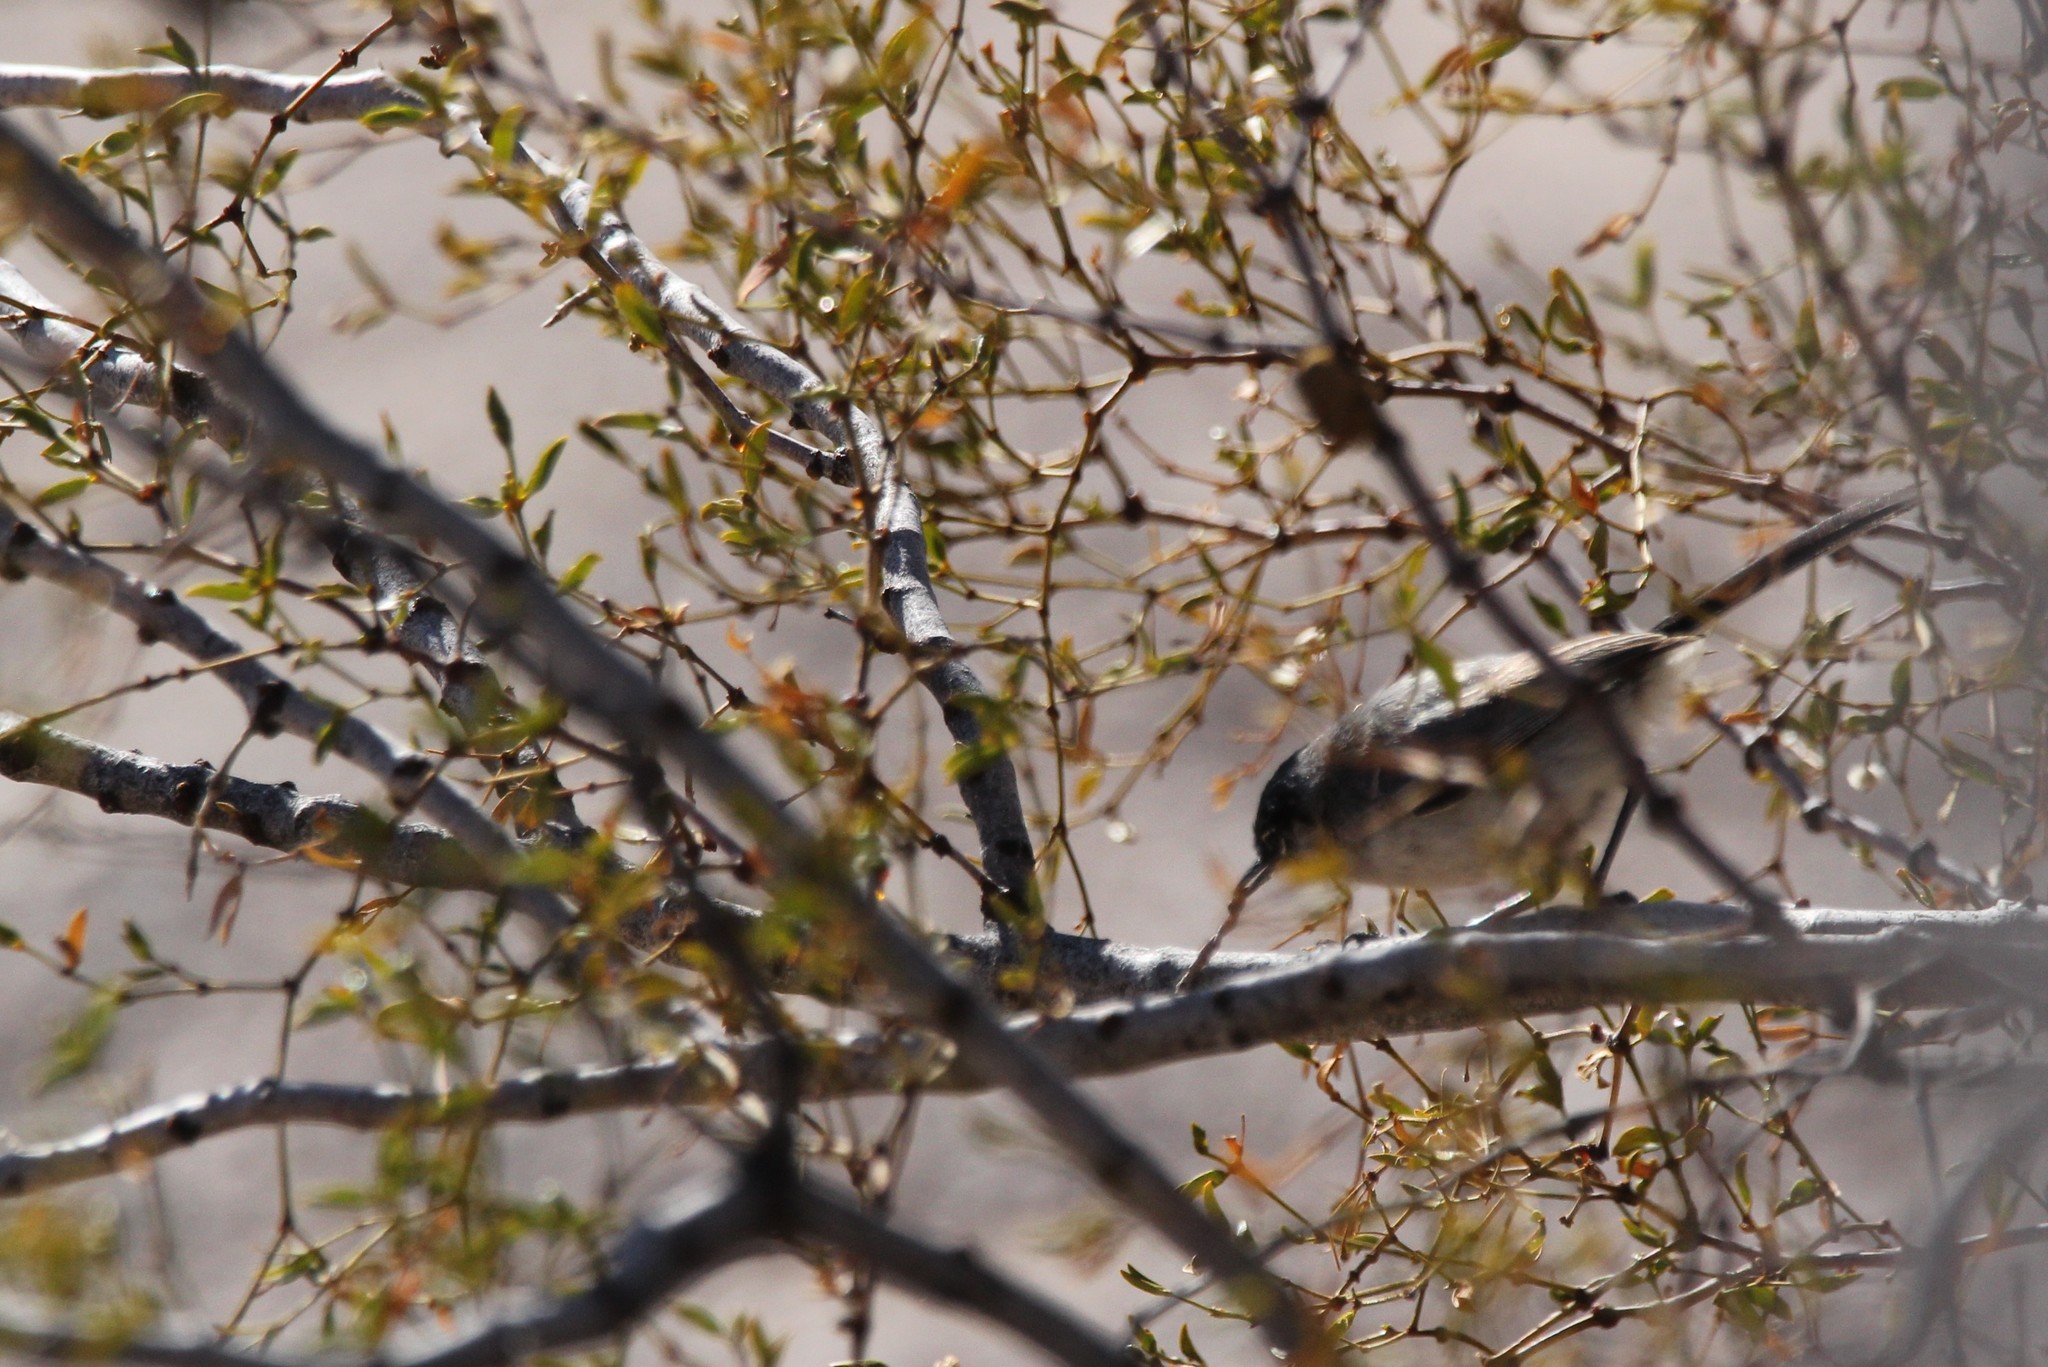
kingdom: Animalia
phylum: Chordata
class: Aves
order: Passeriformes
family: Polioptilidae
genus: Polioptila
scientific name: Polioptila melanura
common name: Black-tailed gnatcatcher
